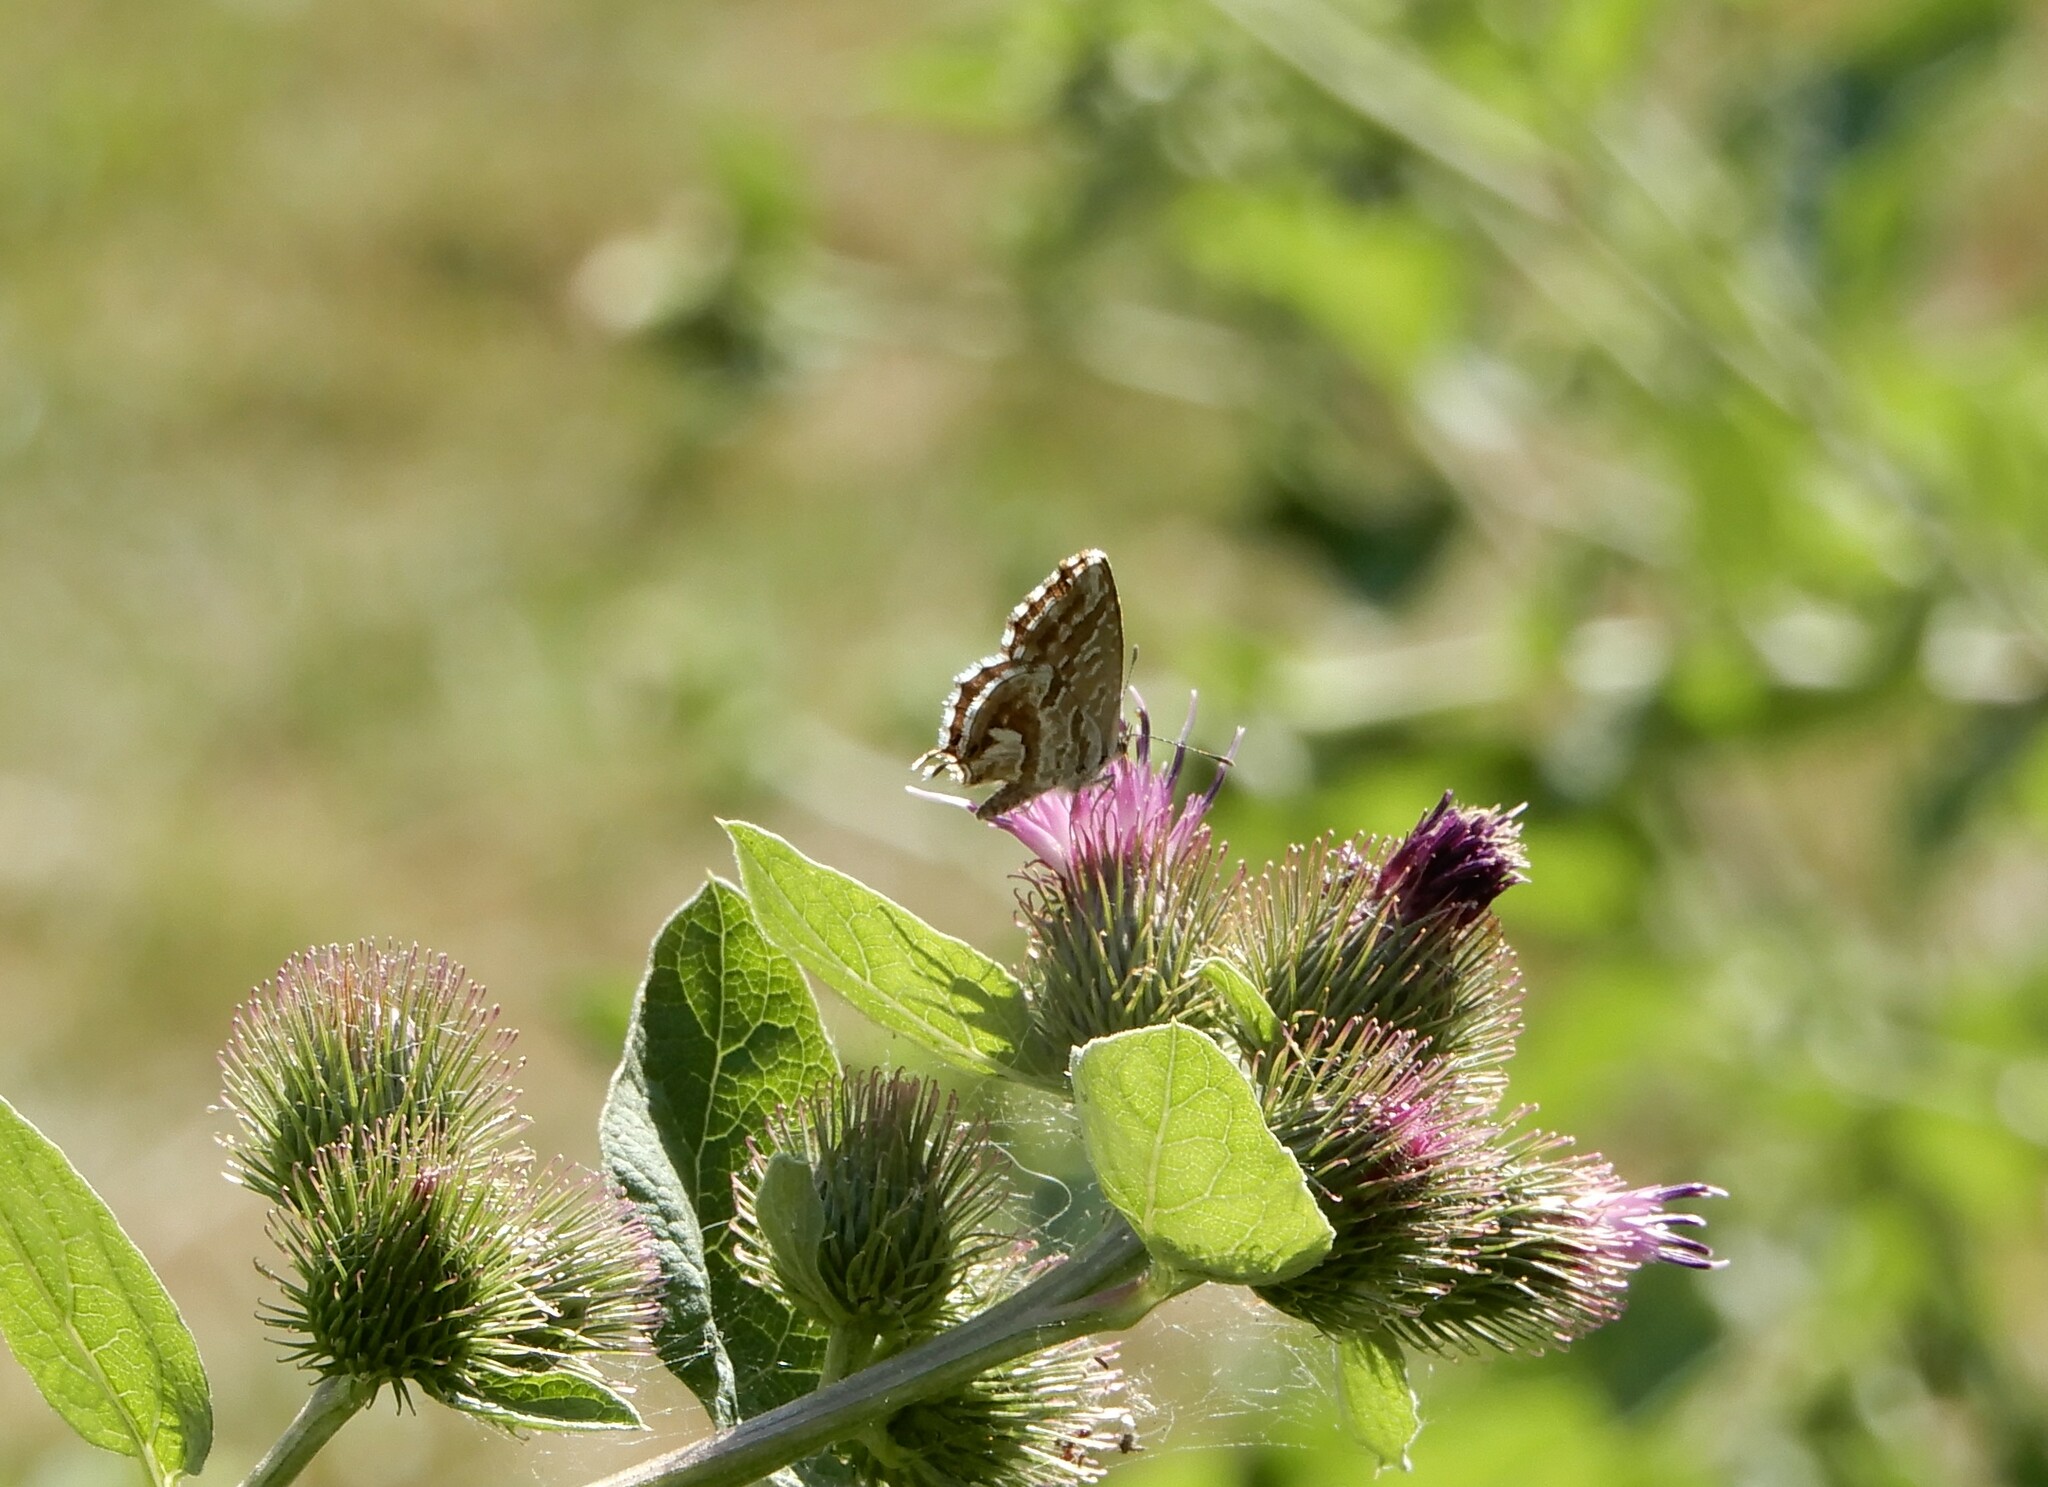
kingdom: Animalia
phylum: Arthropoda
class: Insecta
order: Lepidoptera
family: Lycaenidae
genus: Cacyreus
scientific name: Cacyreus marshalli
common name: Geranium bronze
